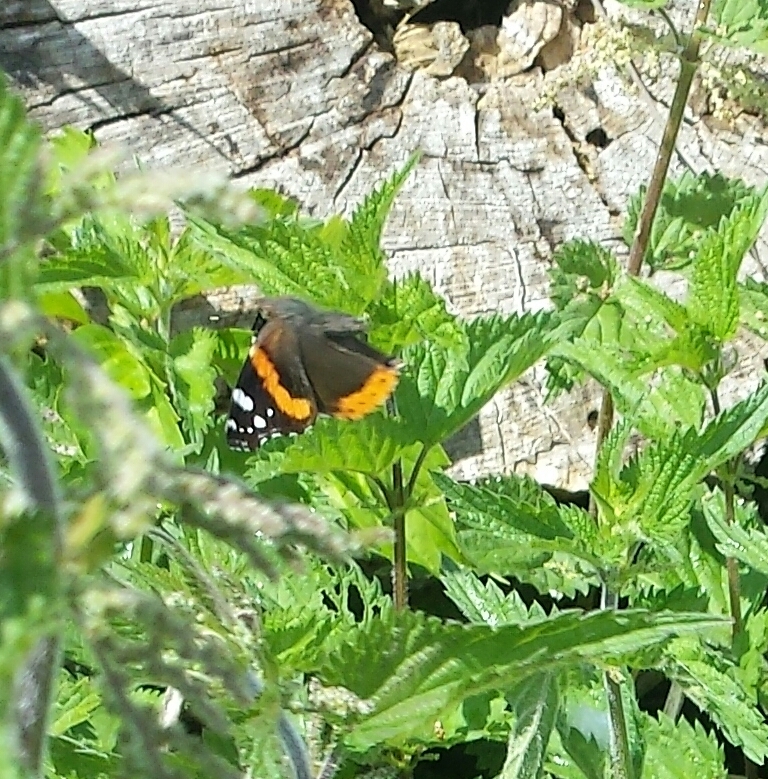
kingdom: Animalia
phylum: Arthropoda
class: Insecta
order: Lepidoptera
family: Nymphalidae
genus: Vanessa
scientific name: Vanessa atalanta
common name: Red admiral
